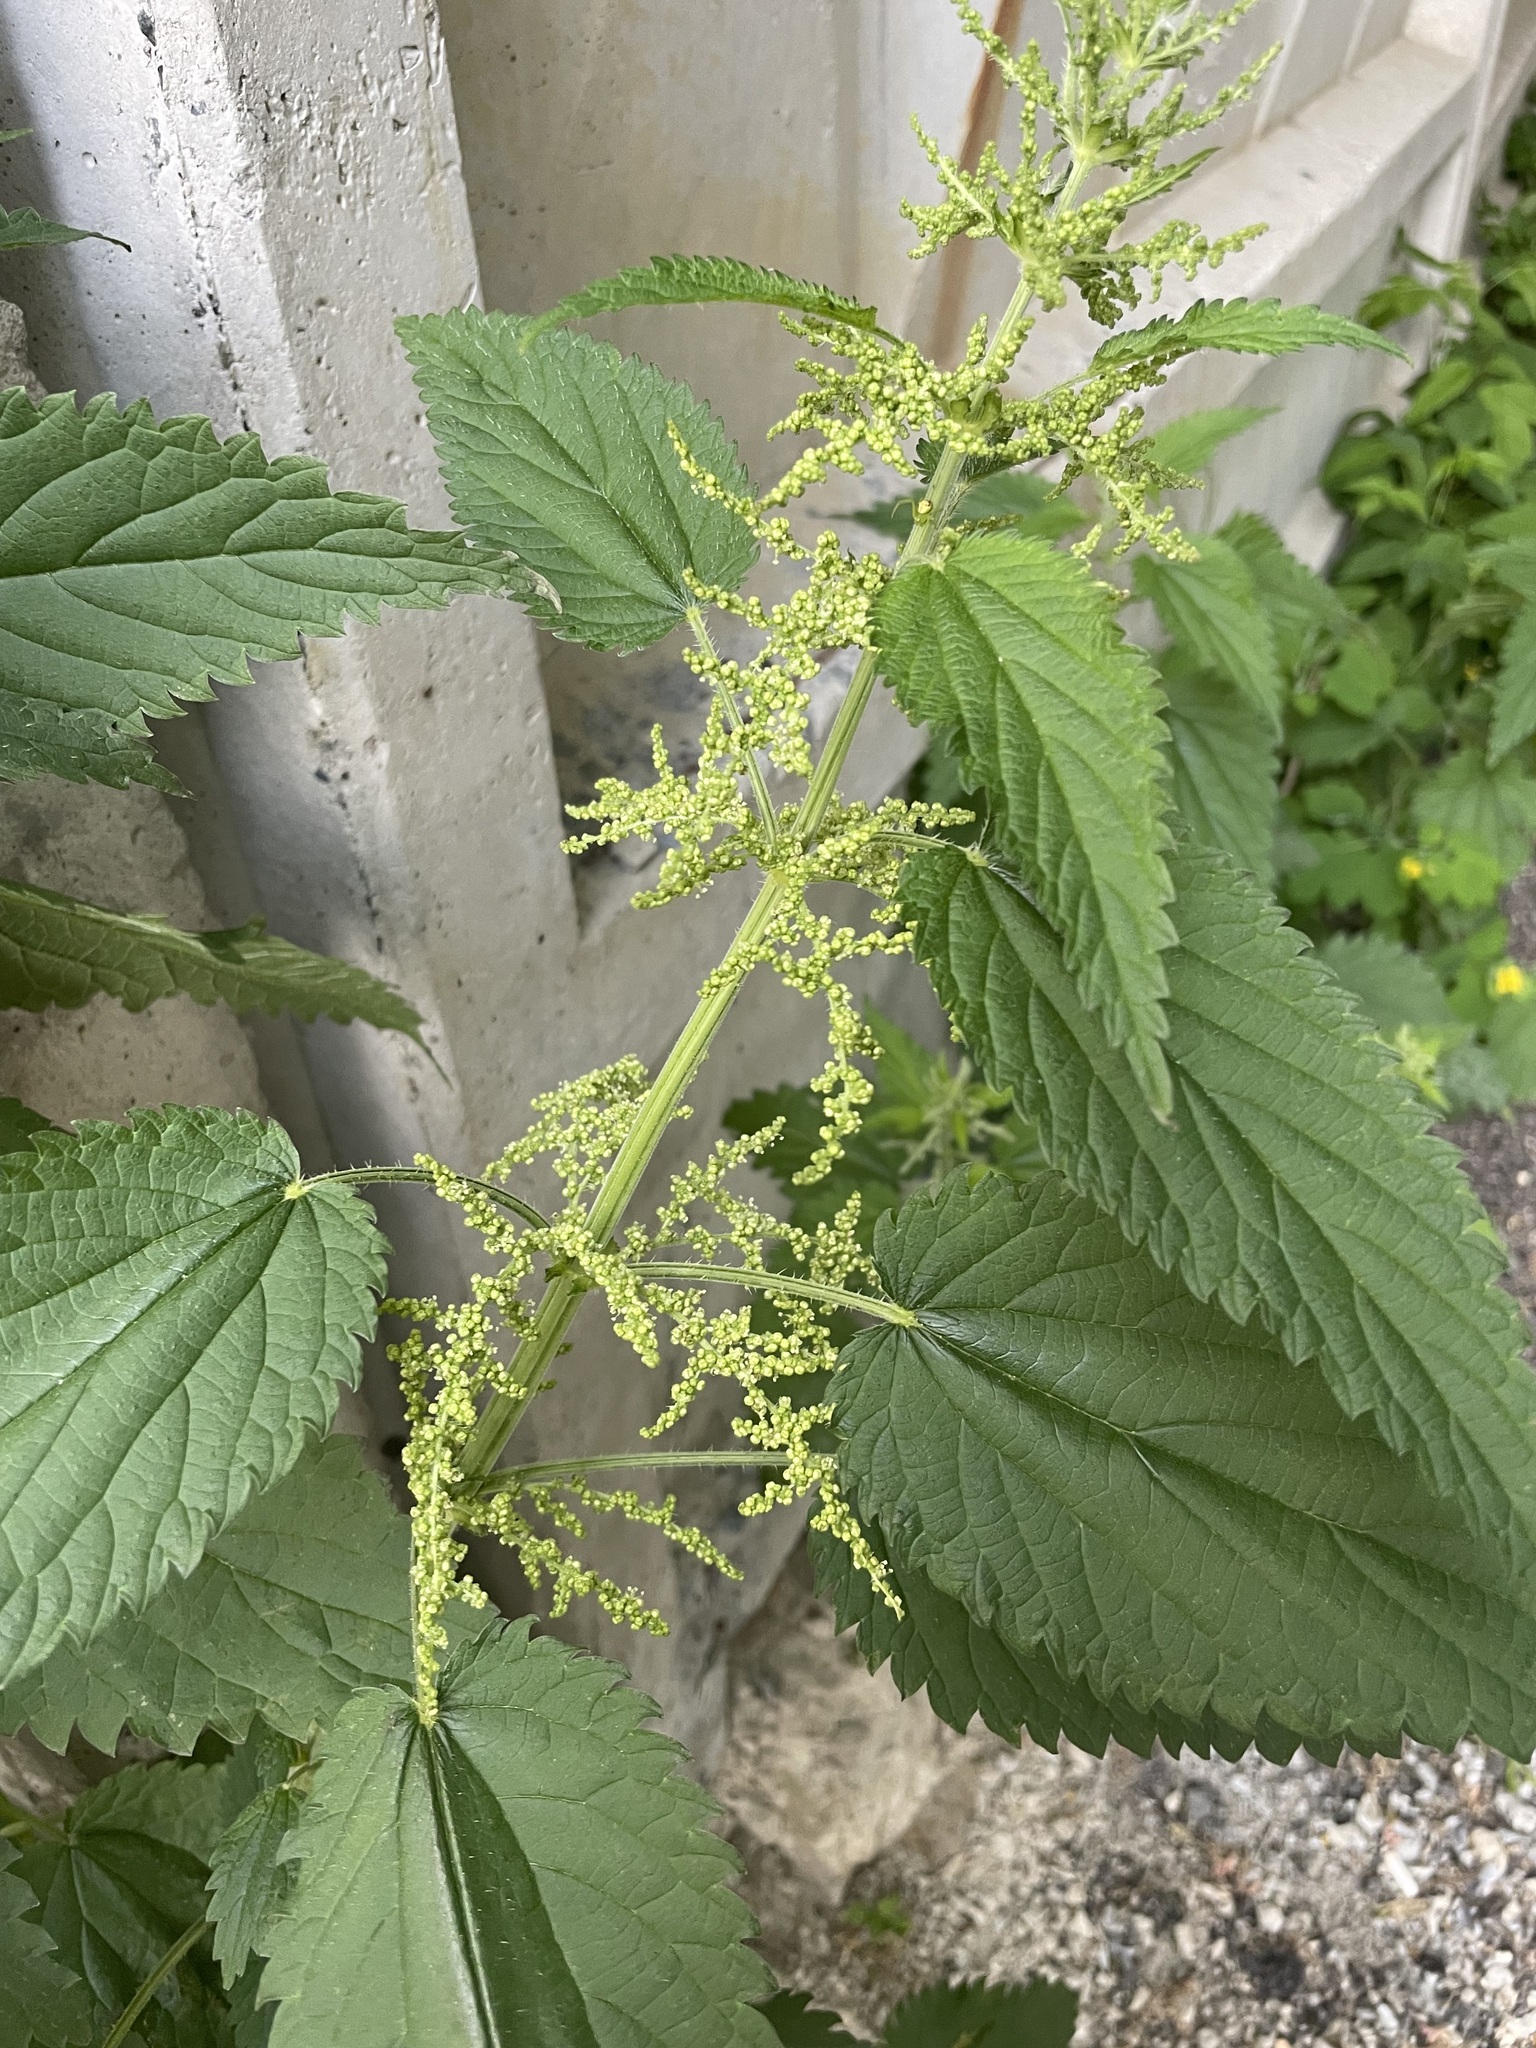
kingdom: Plantae
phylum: Tracheophyta
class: Magnoliopsida
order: Rosales
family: Urticaceae
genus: Urtica
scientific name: Urtica dioica
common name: Common nettle
